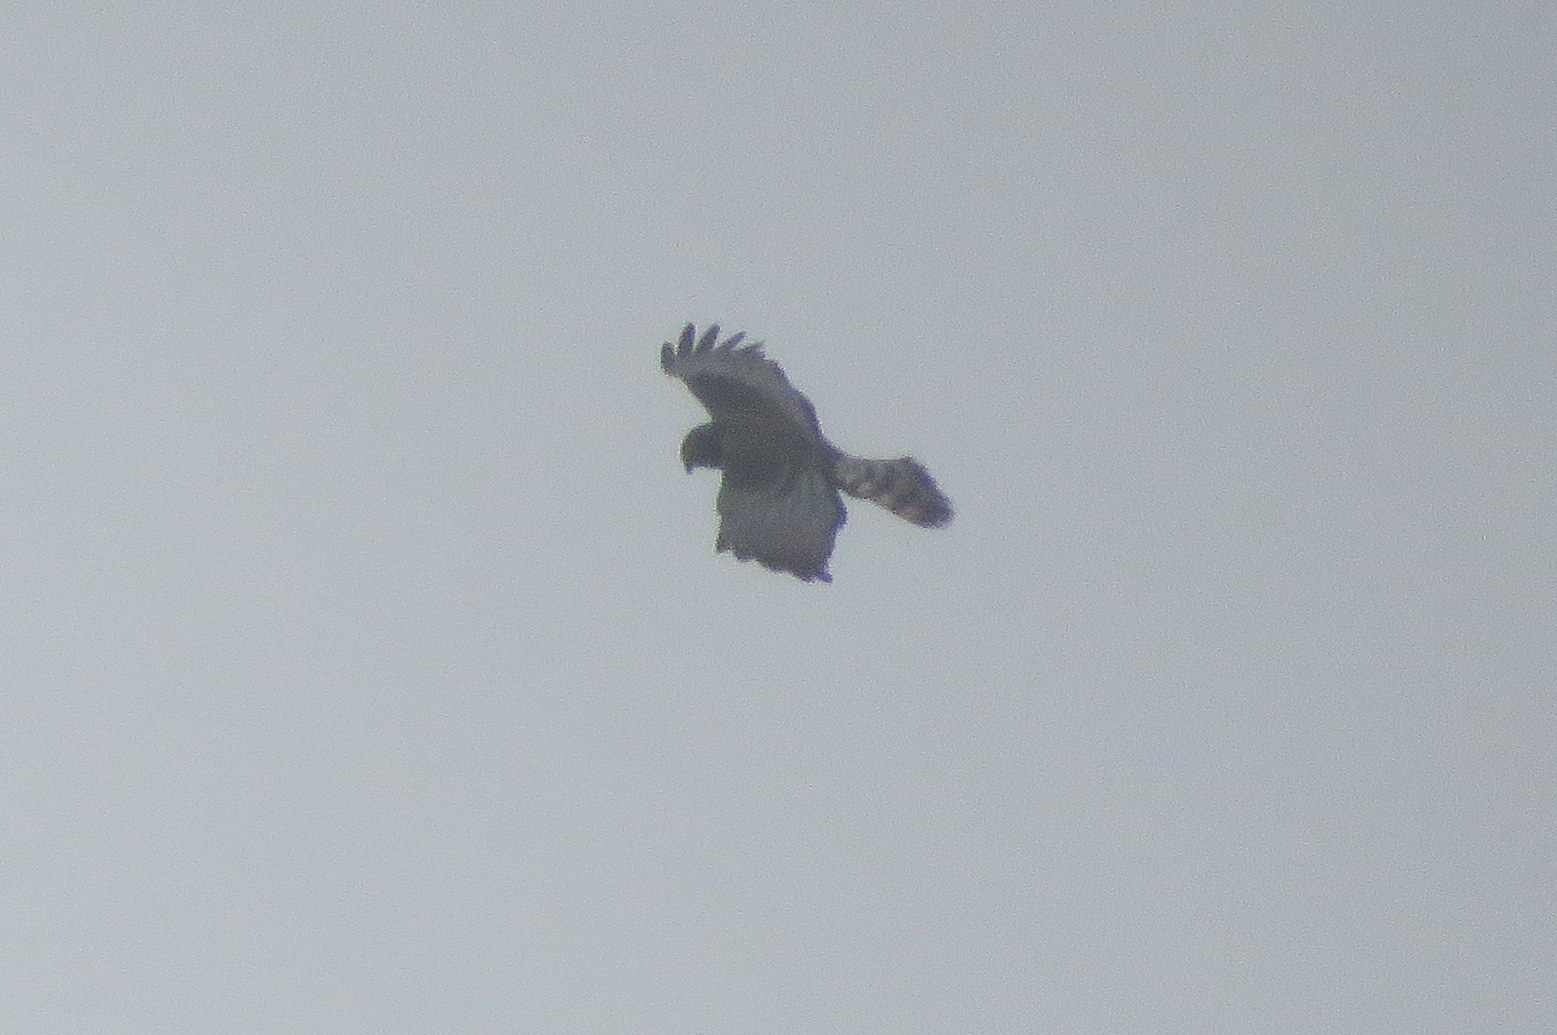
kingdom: Animalia
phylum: Chordata
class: Aves
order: Accipitriformes
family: Accipitridae
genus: Circus
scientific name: Circus buffoni
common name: Long-winged harrier
